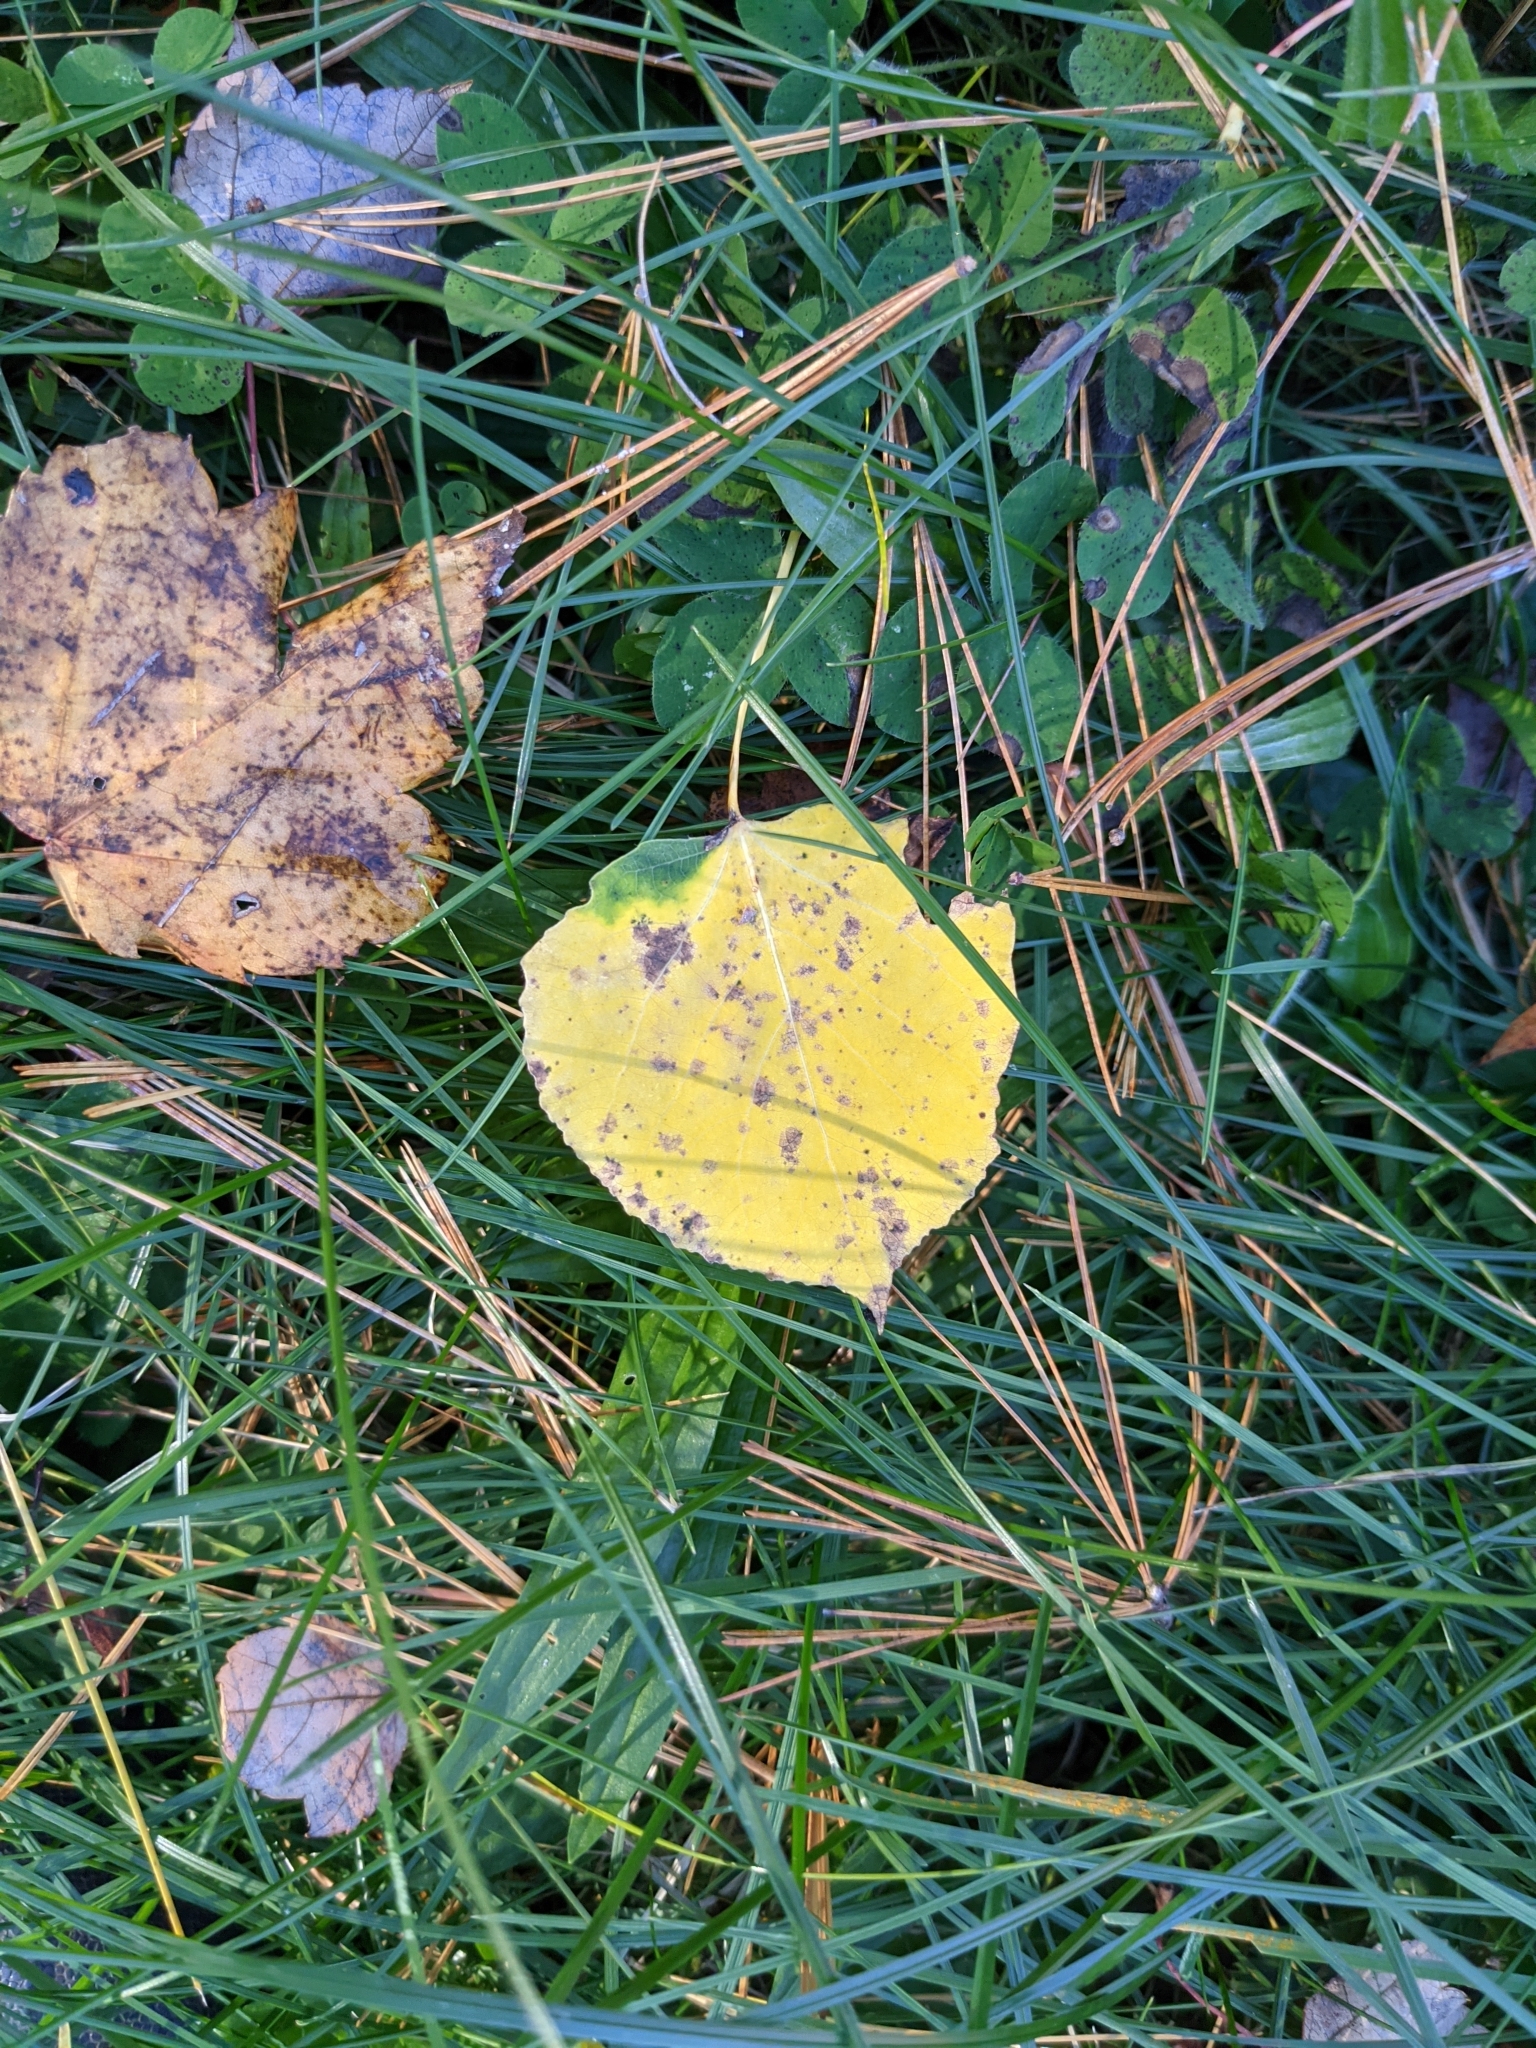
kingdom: Plantae
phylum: Tracheophyta
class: Magnoliopsida
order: Malpighiales
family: Salicaceae
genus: Populus
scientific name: Populus tremuloides
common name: Quaking aspen
